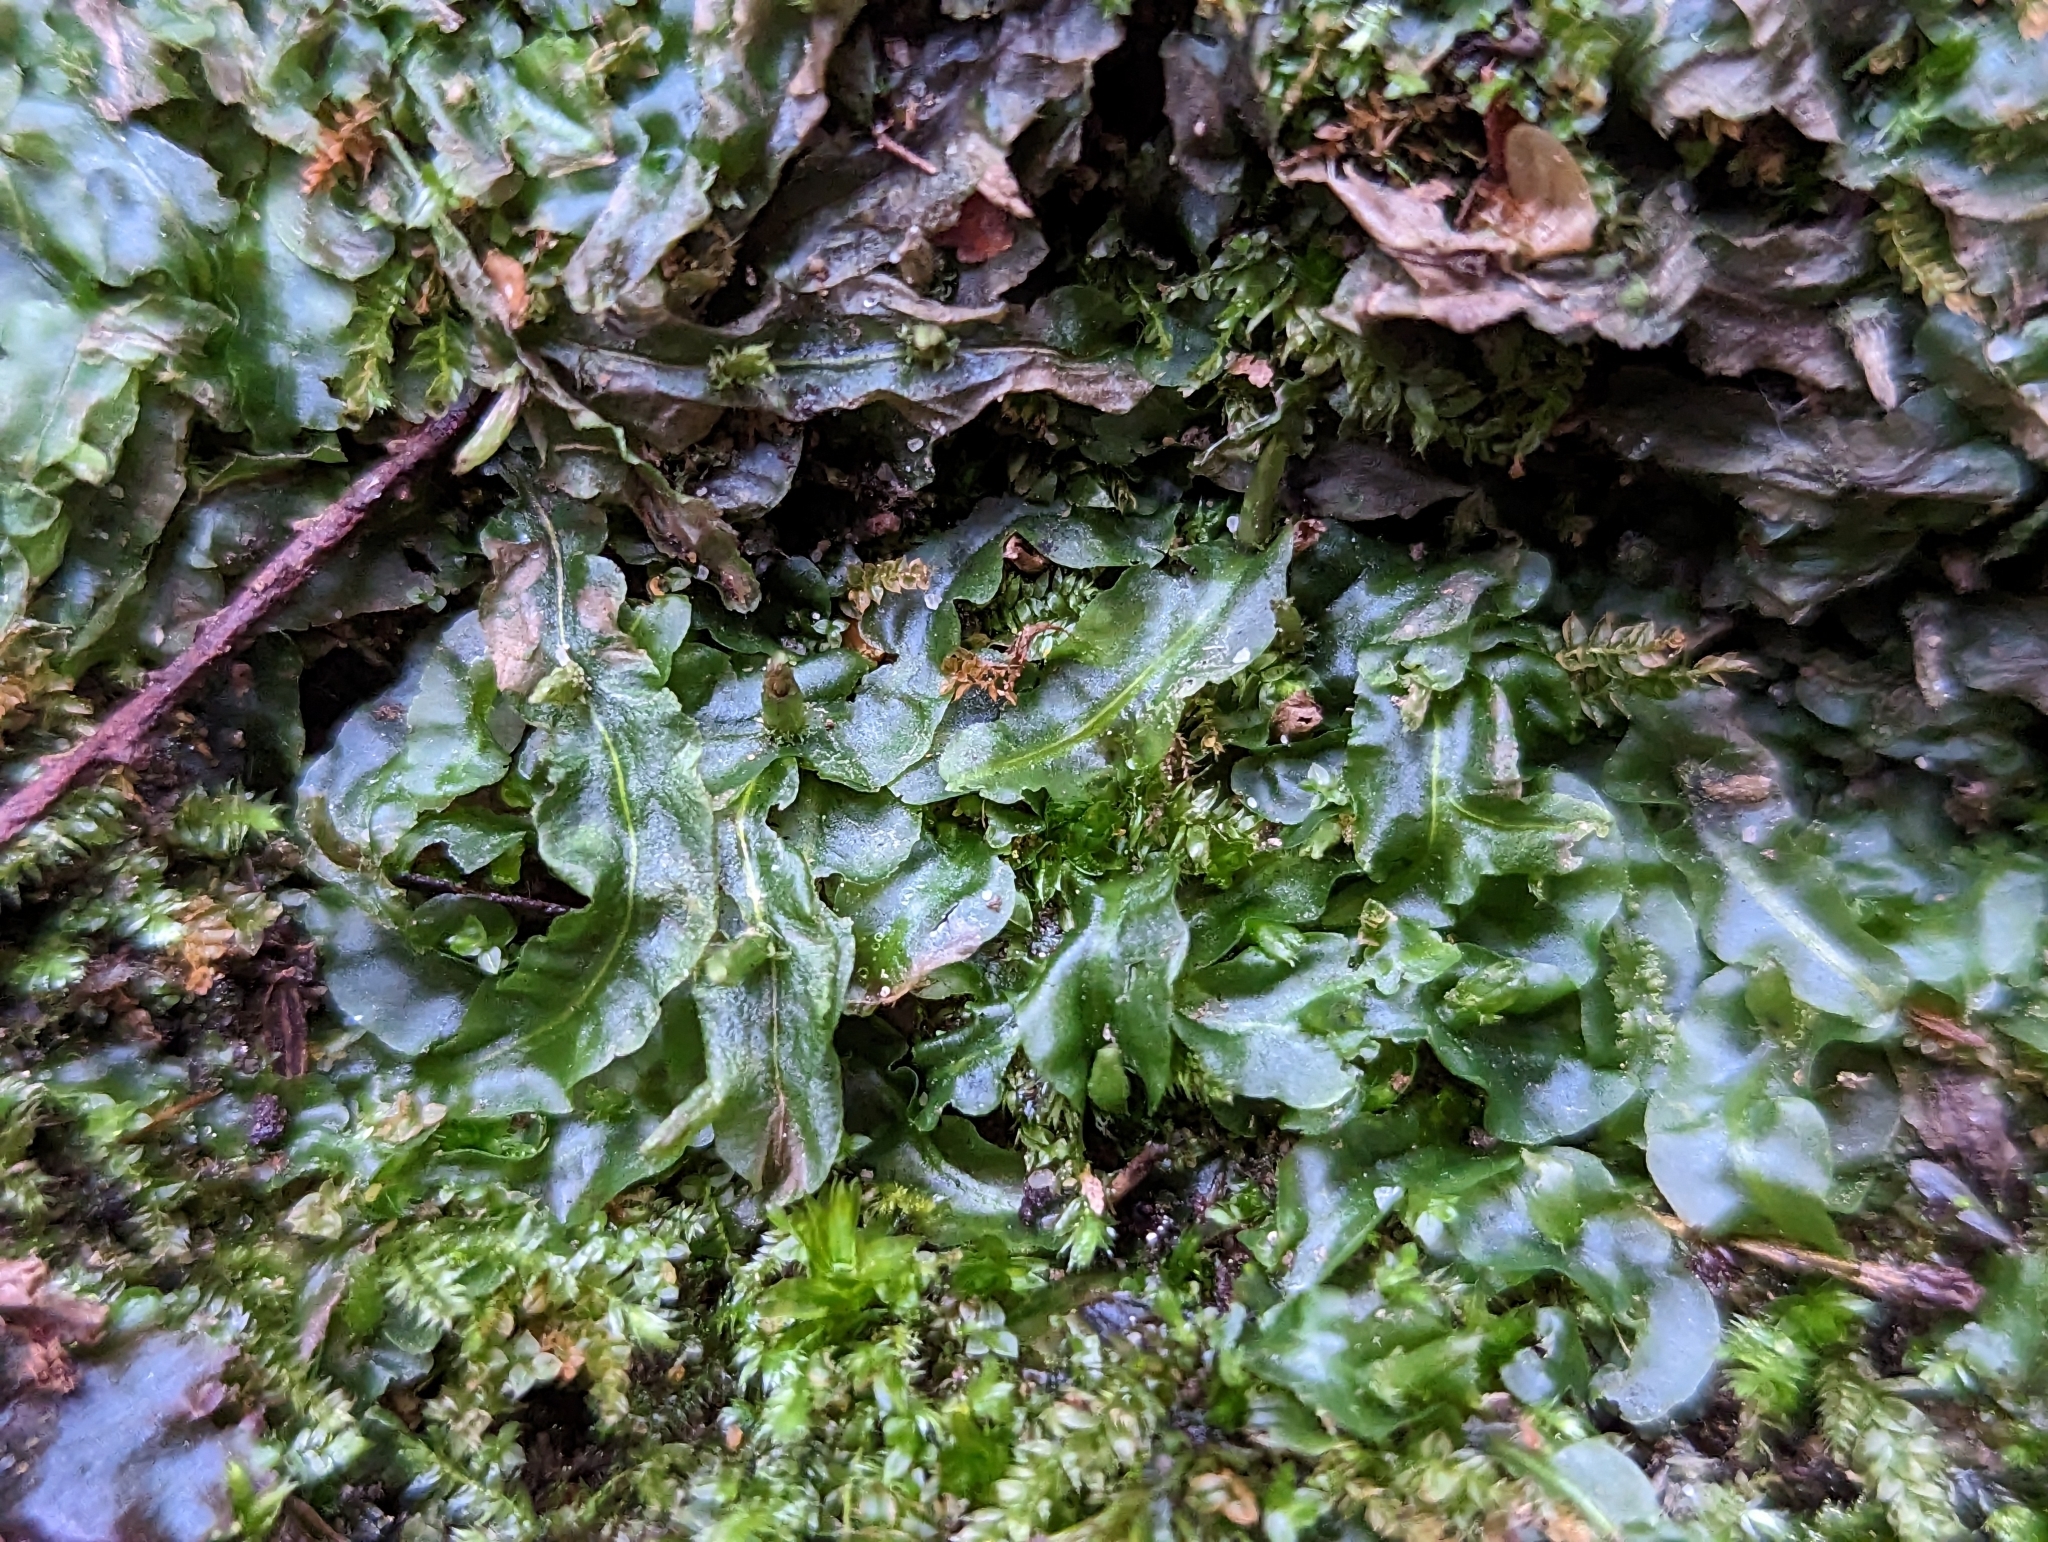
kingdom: Plantae
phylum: Marchantiophyta
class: Jungermanniopsida
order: Pallaviciniales
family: Pallaviciniaceae
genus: Pallavicinia
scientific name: Pallavicinia lyellii
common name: Veilwort
